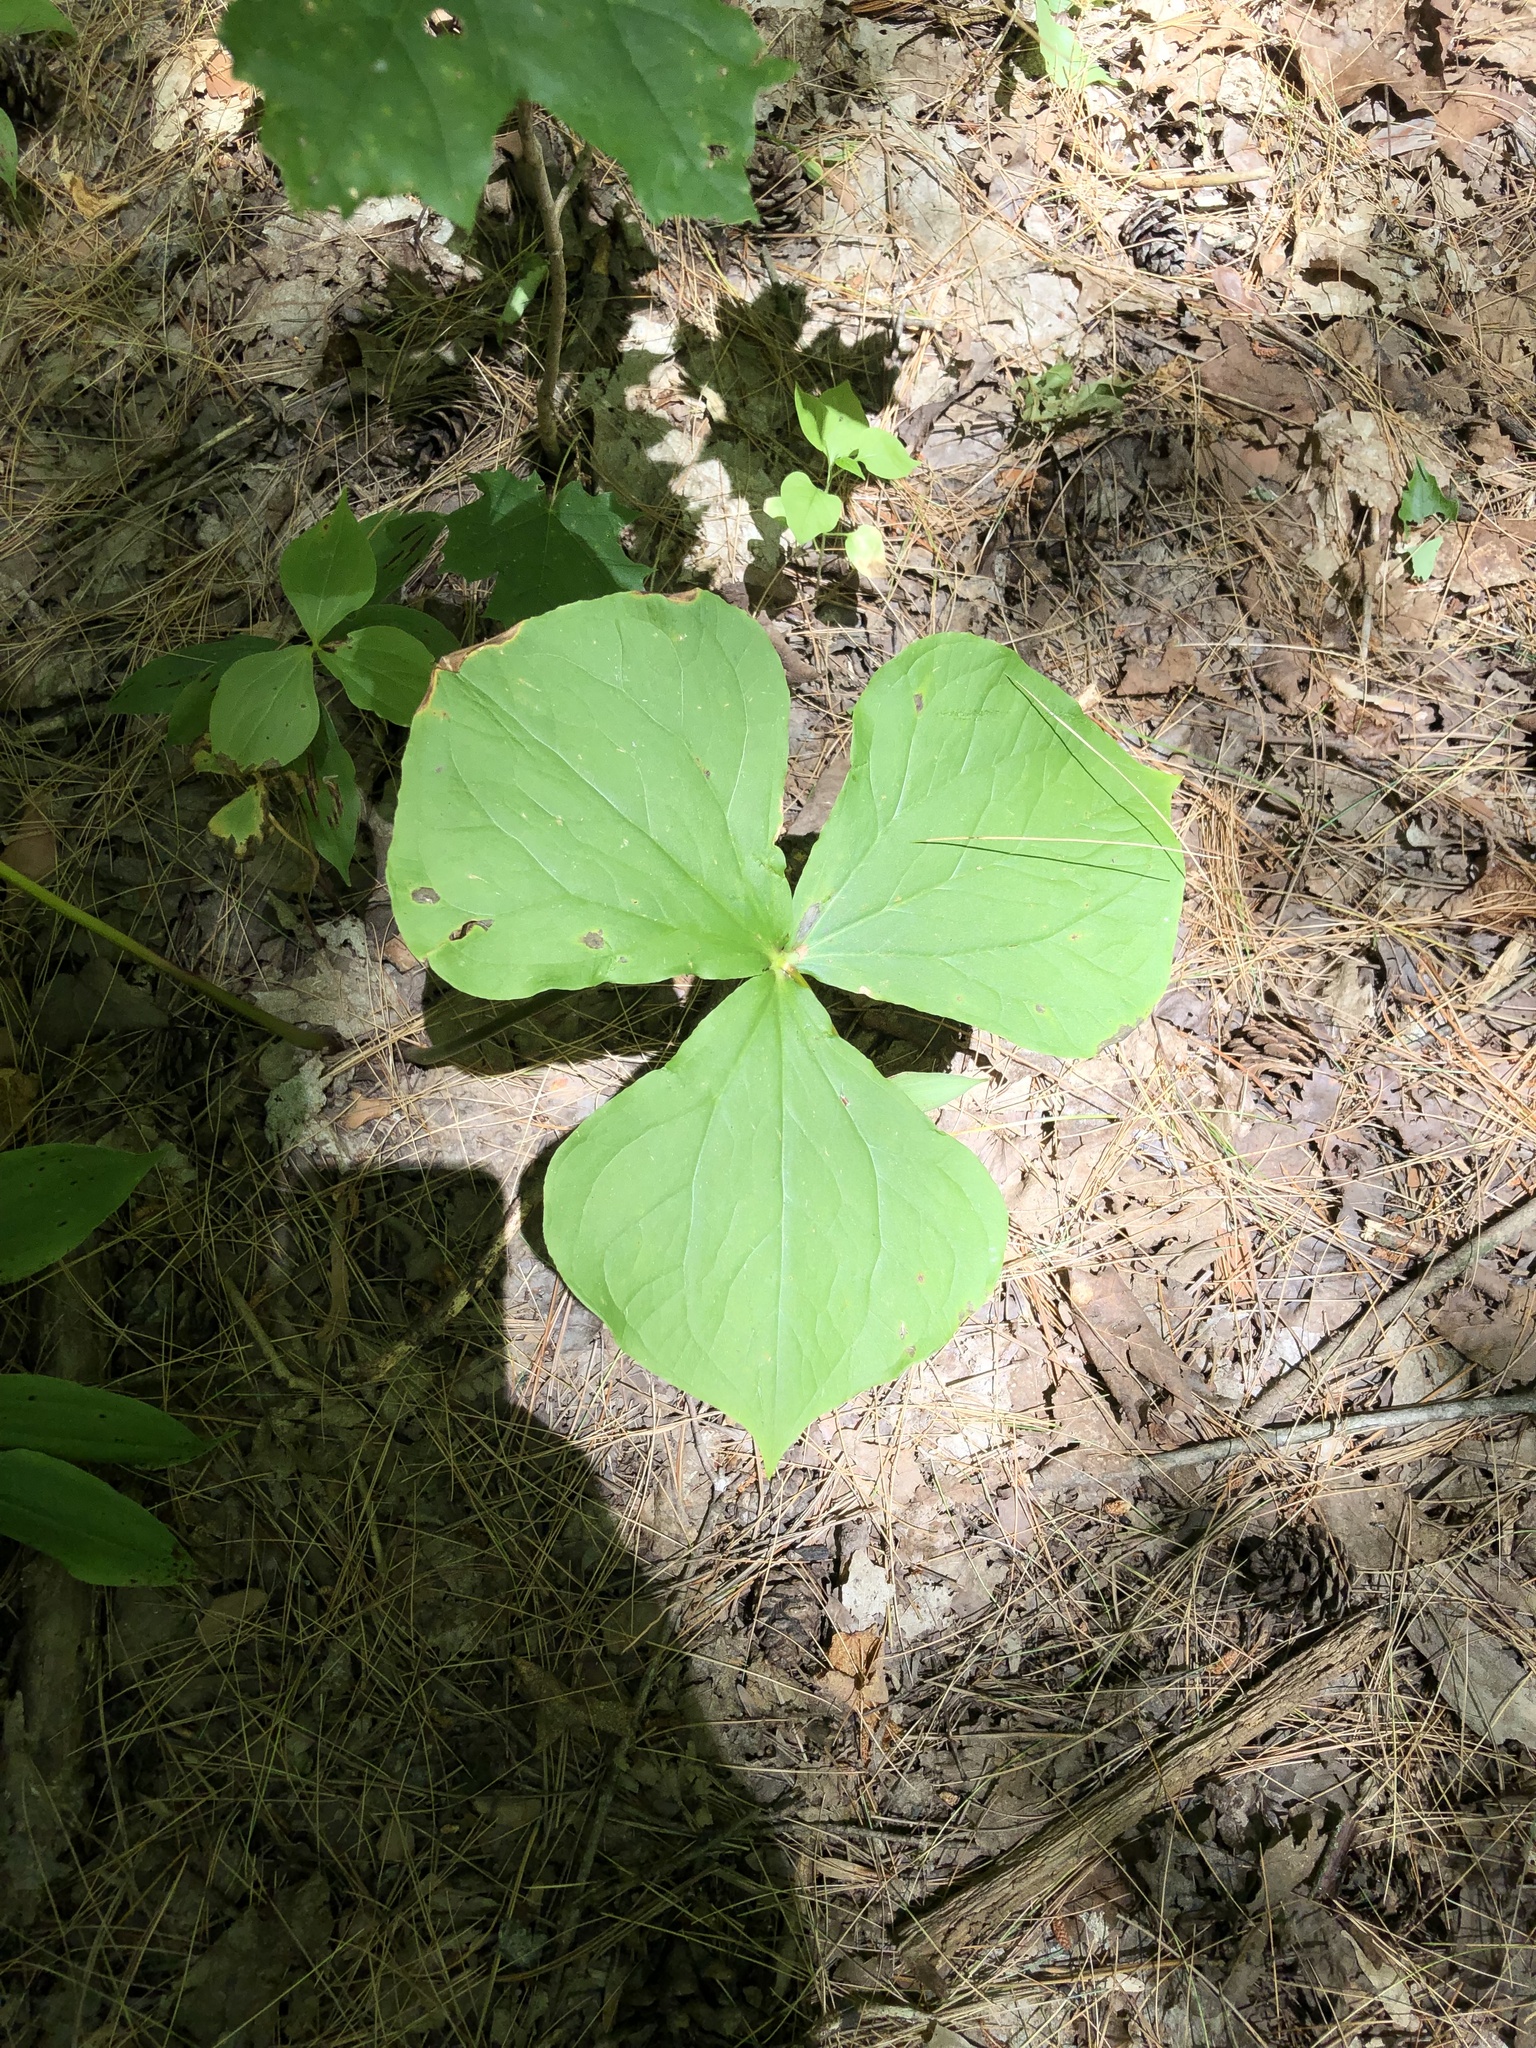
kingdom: Plantae
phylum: Tracheophyta
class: Liliopsida
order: Liliales
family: Melanthiaceae
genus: Trillium
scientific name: Trillium erectum
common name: Purple trillium
